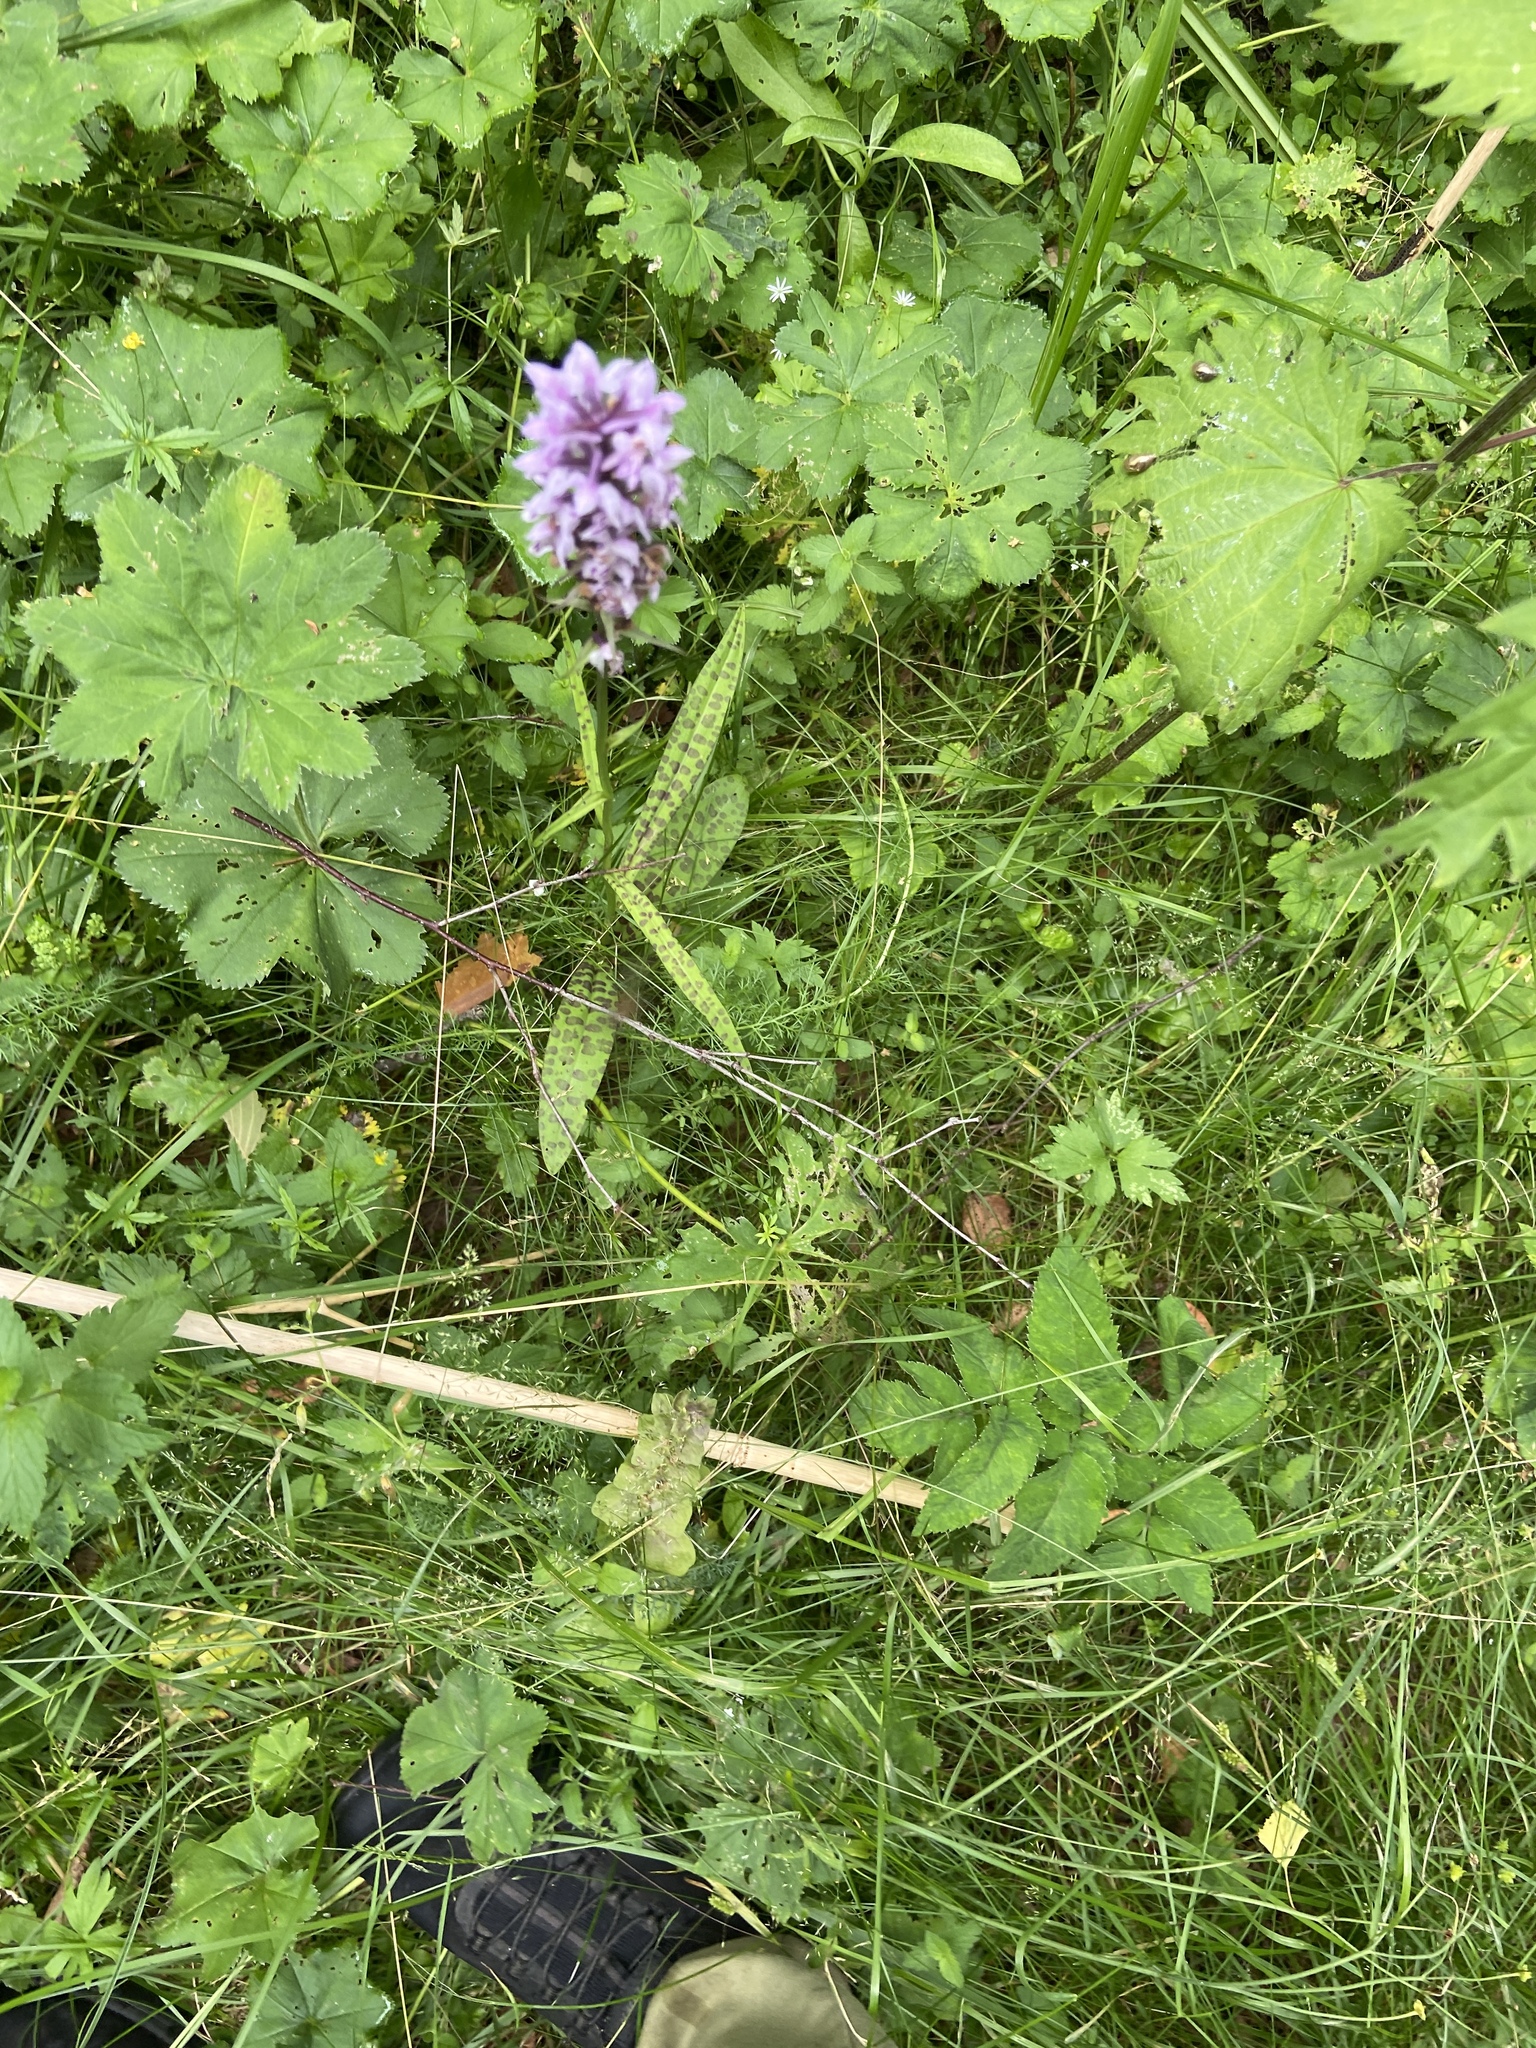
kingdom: Plantae
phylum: Tracheophyta
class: Liliopsida
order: Asparagales
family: Orchidaceae
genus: Dactylorhiza
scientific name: Dactylorhiza maculata
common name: Heath spotted-orchid
